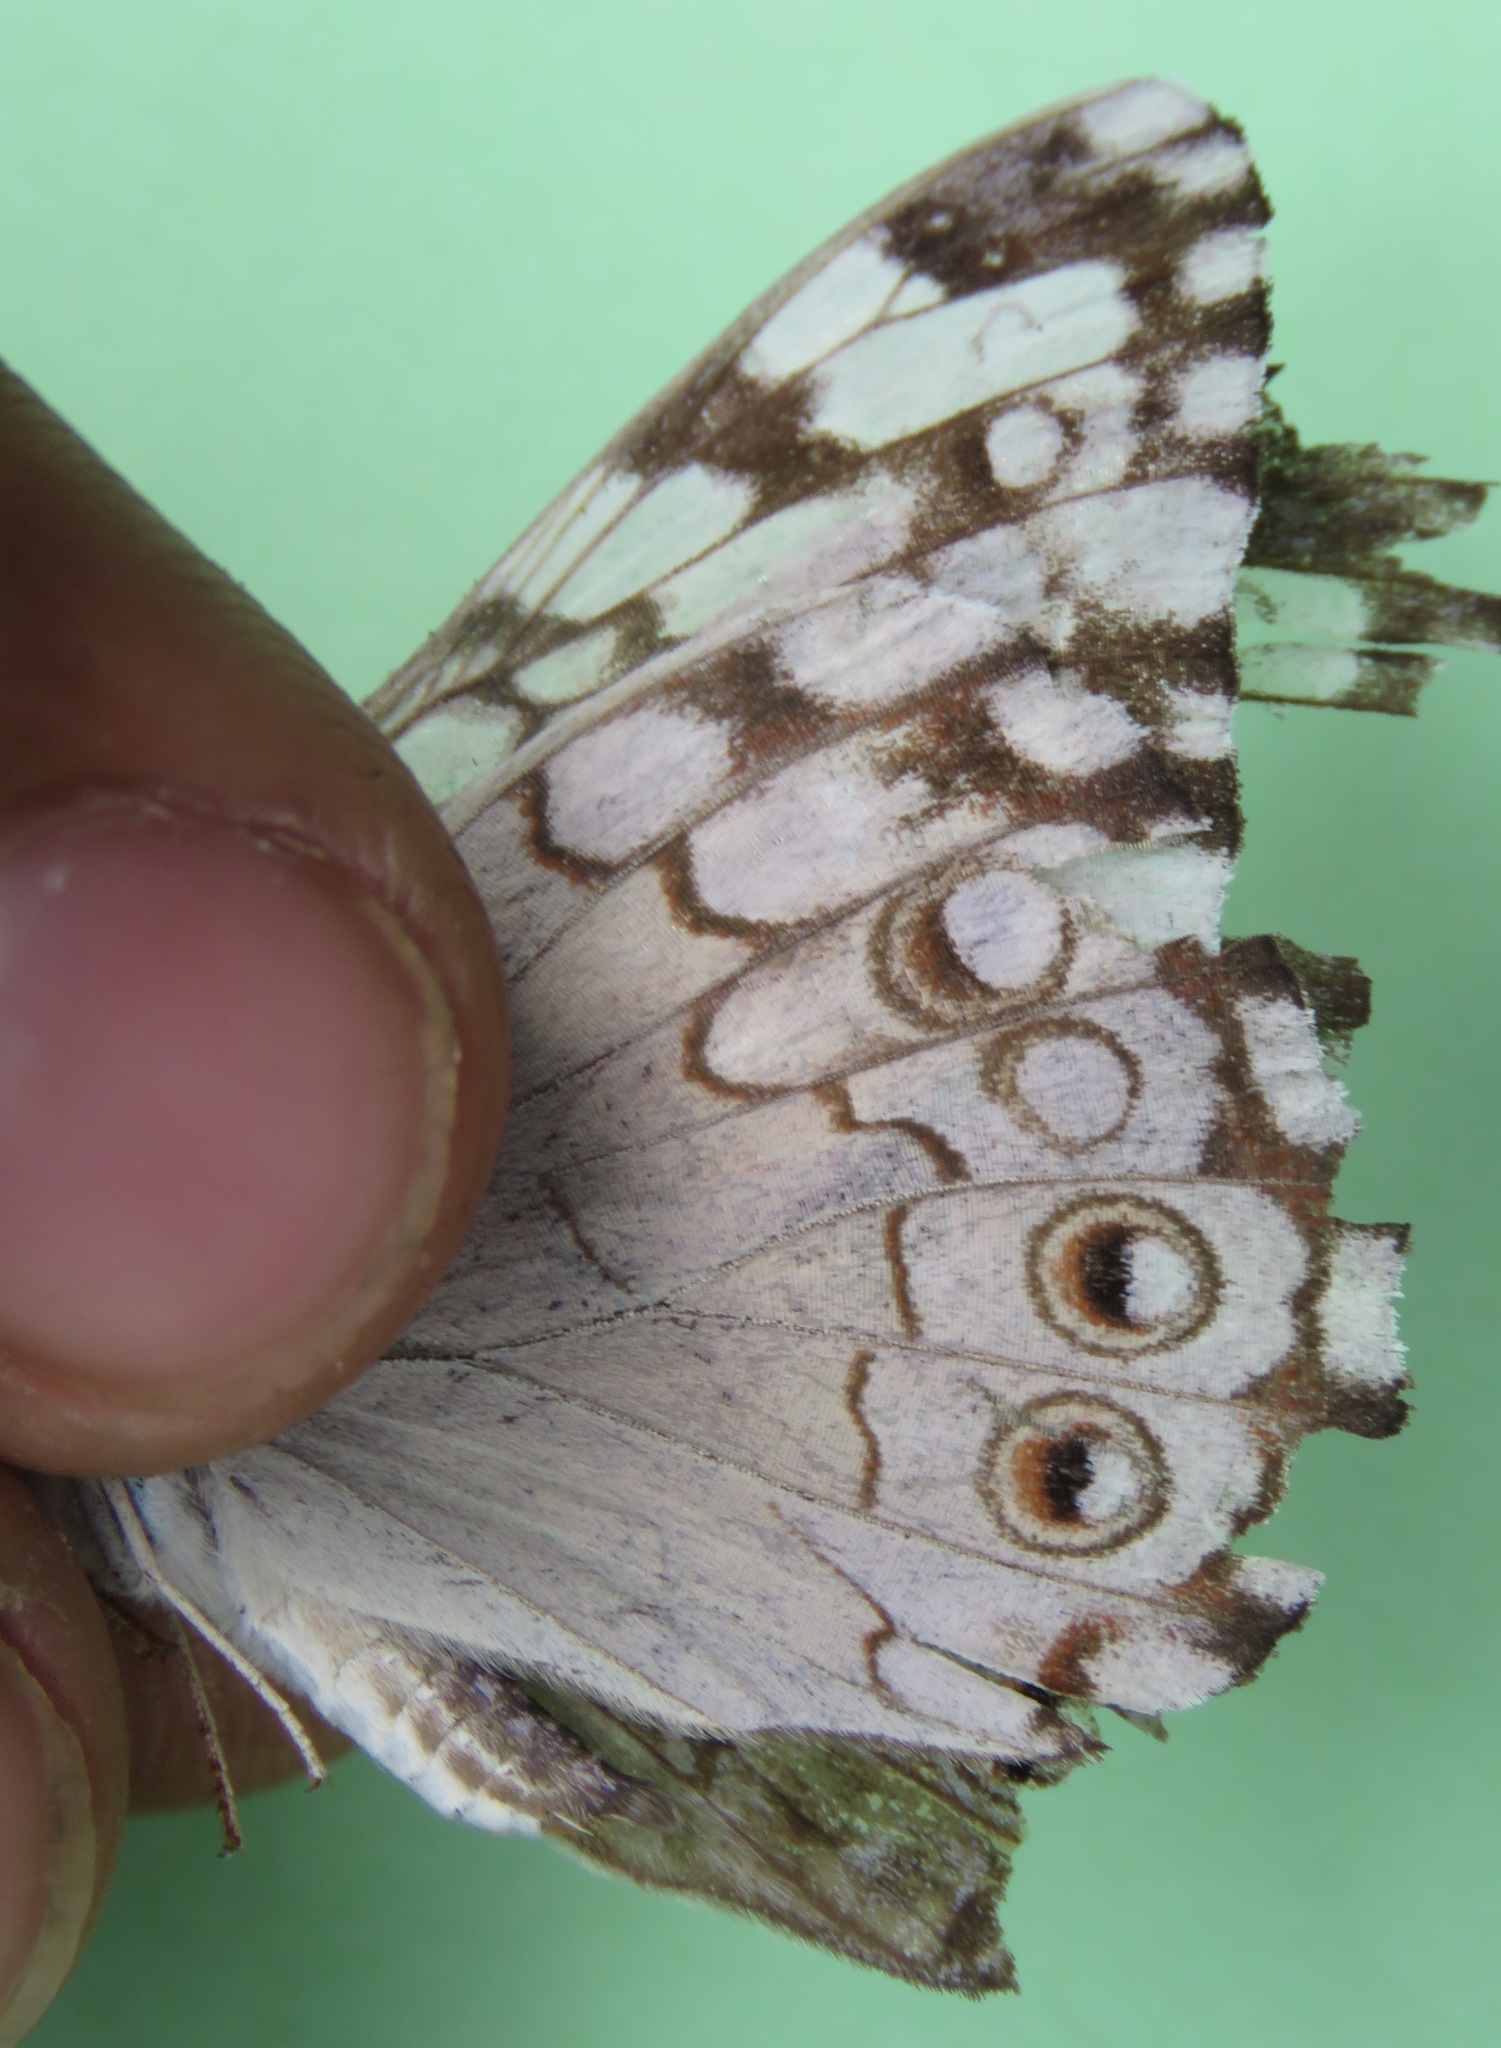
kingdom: Animalia
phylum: Arthropoda
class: Insecta
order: Lepidoptera
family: Nymphalidae
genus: Hamadryas
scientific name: Hamadryas februa
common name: Gray cracker
